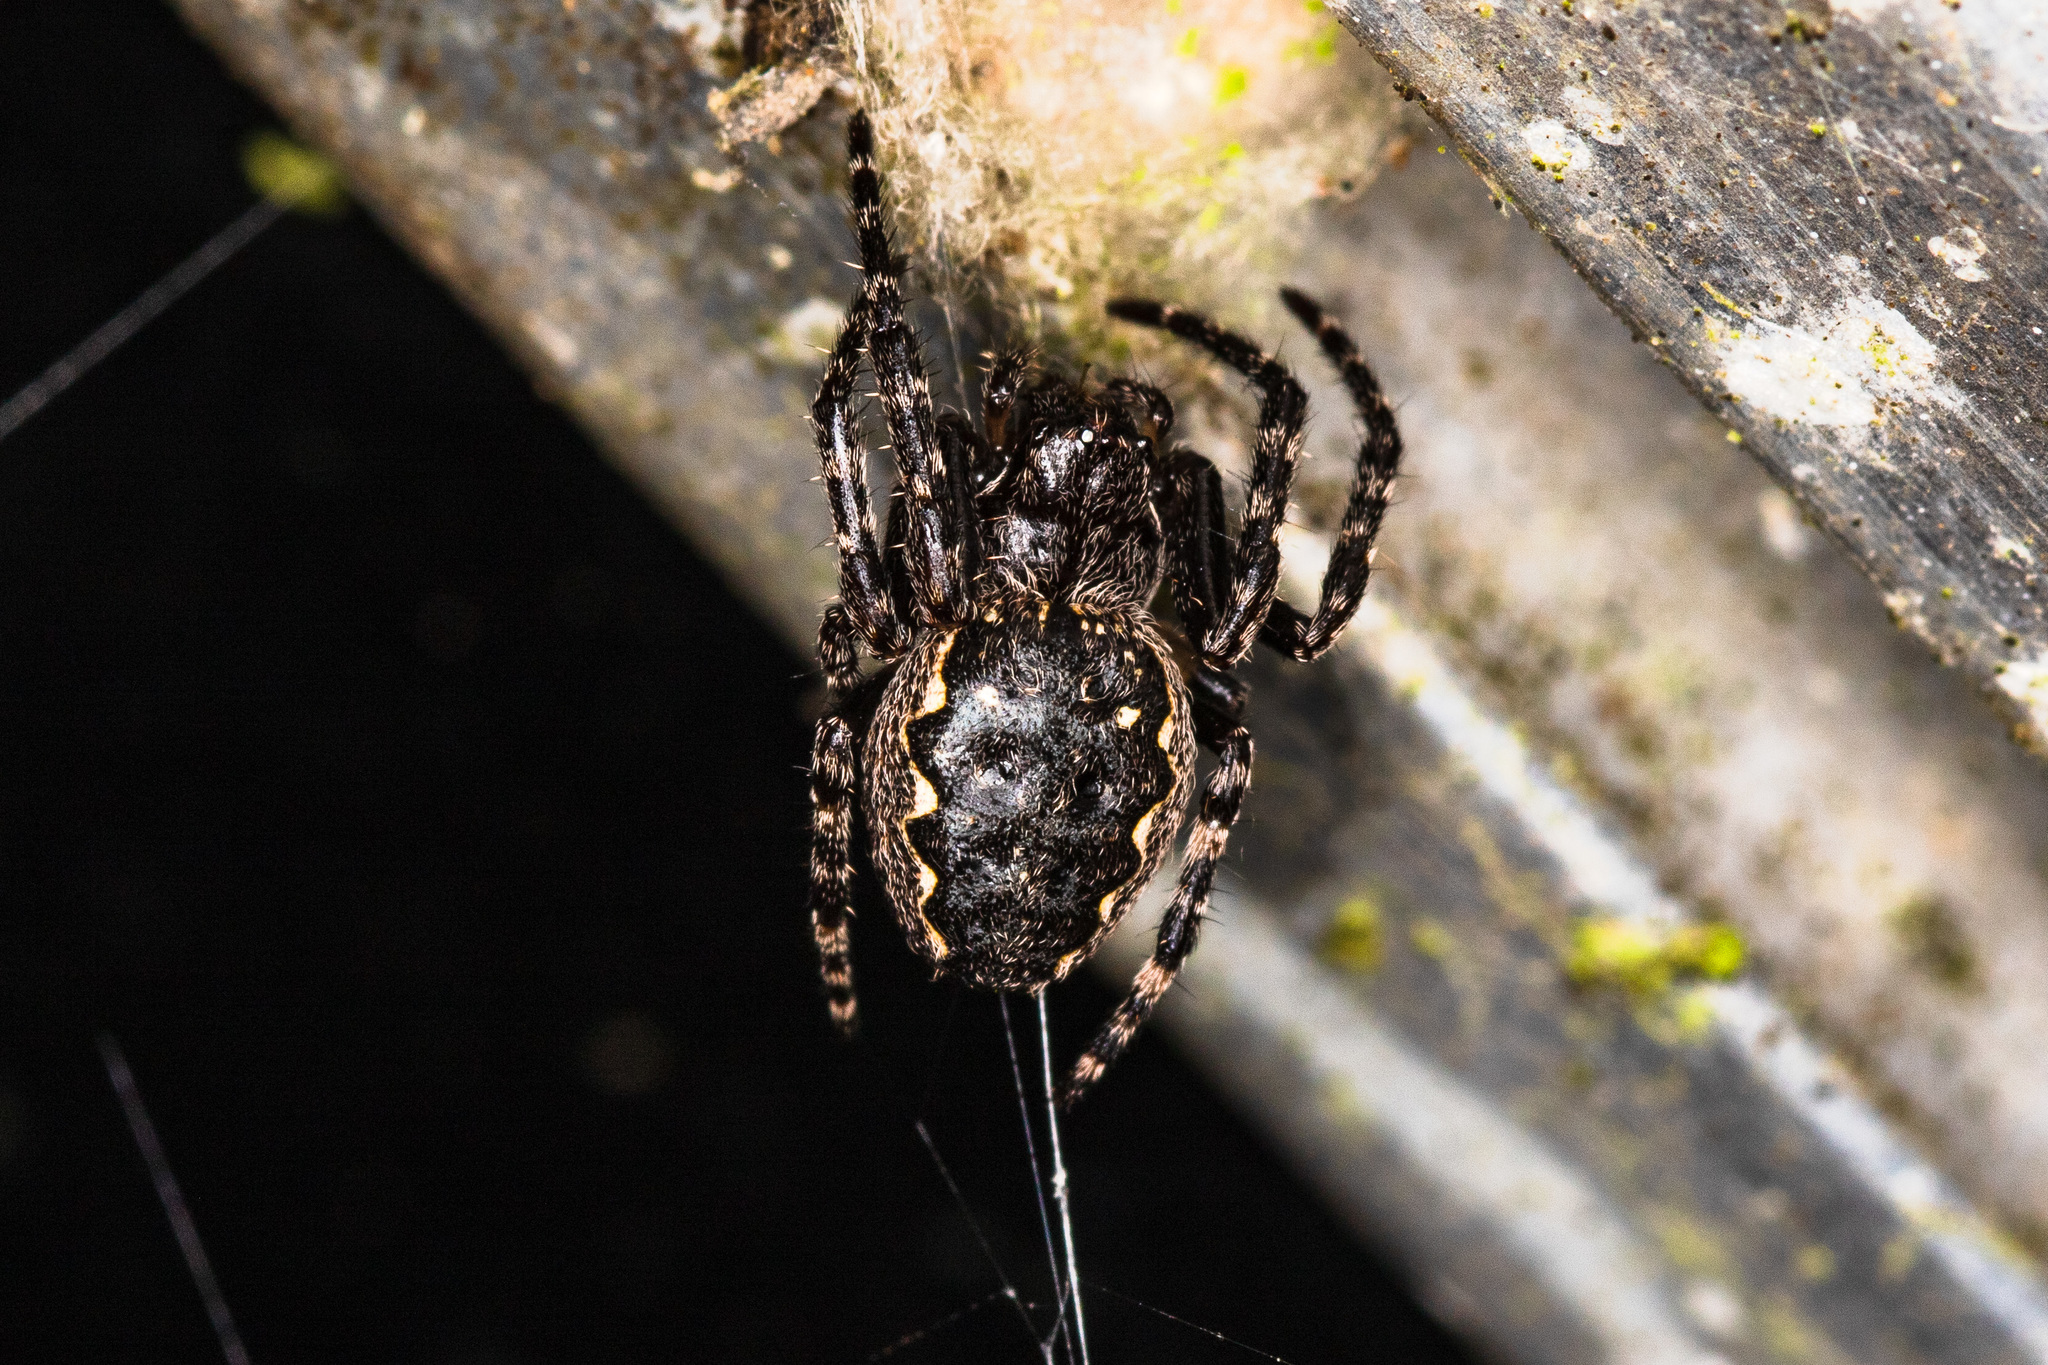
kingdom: Animalia
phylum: Arthropoda
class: Arachnida
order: Araneae
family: Araneidae
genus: Nuctenea
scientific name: Nuctenea umbratica
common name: Toad spider
